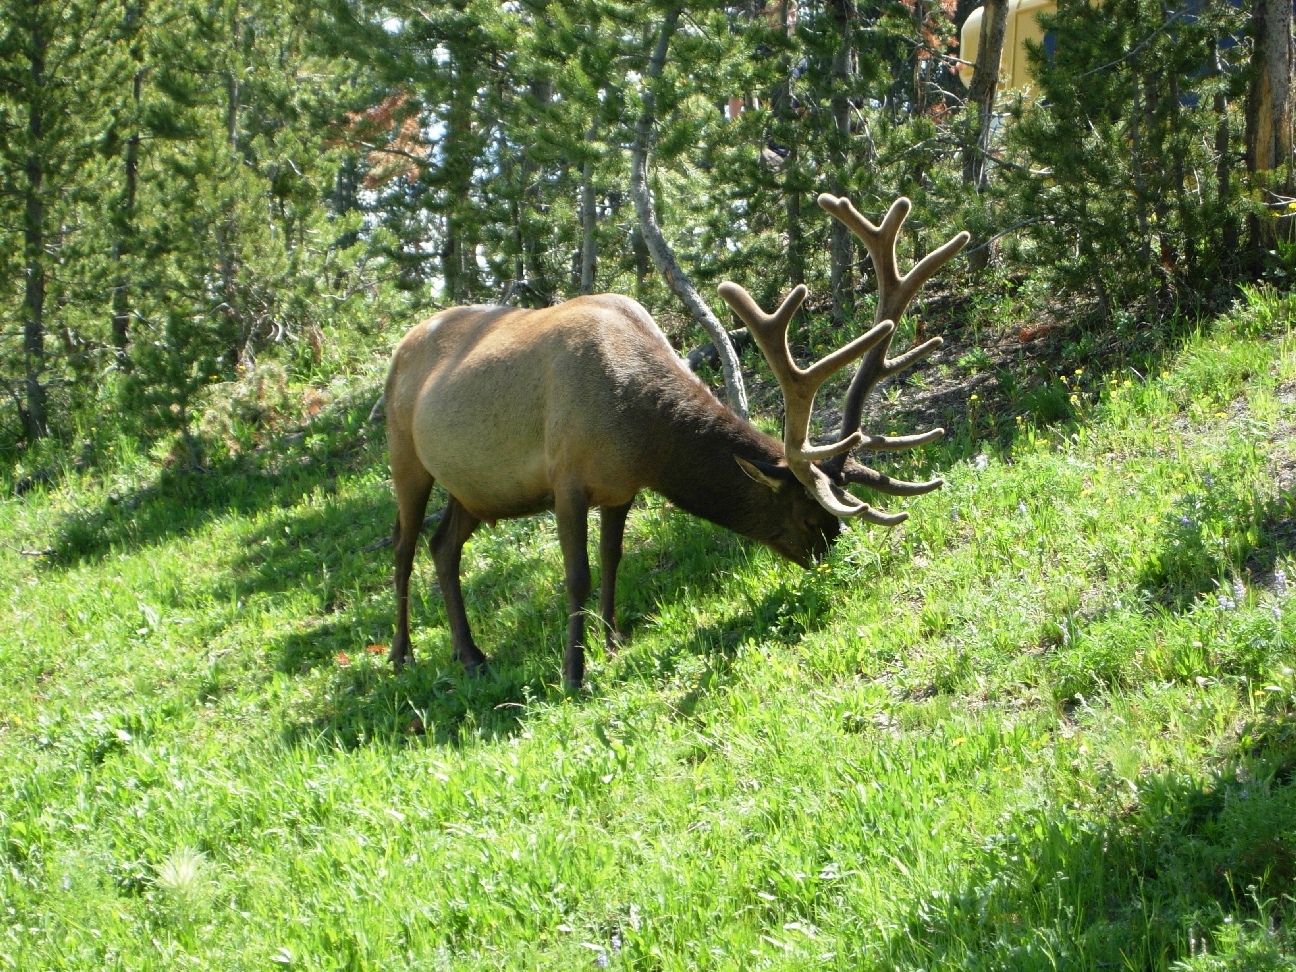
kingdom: Animalia
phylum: Chordata
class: Mammalia
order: Artiodactyla
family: Cervidae
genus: Cervus
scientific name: Cervus elaphus
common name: Red deer
